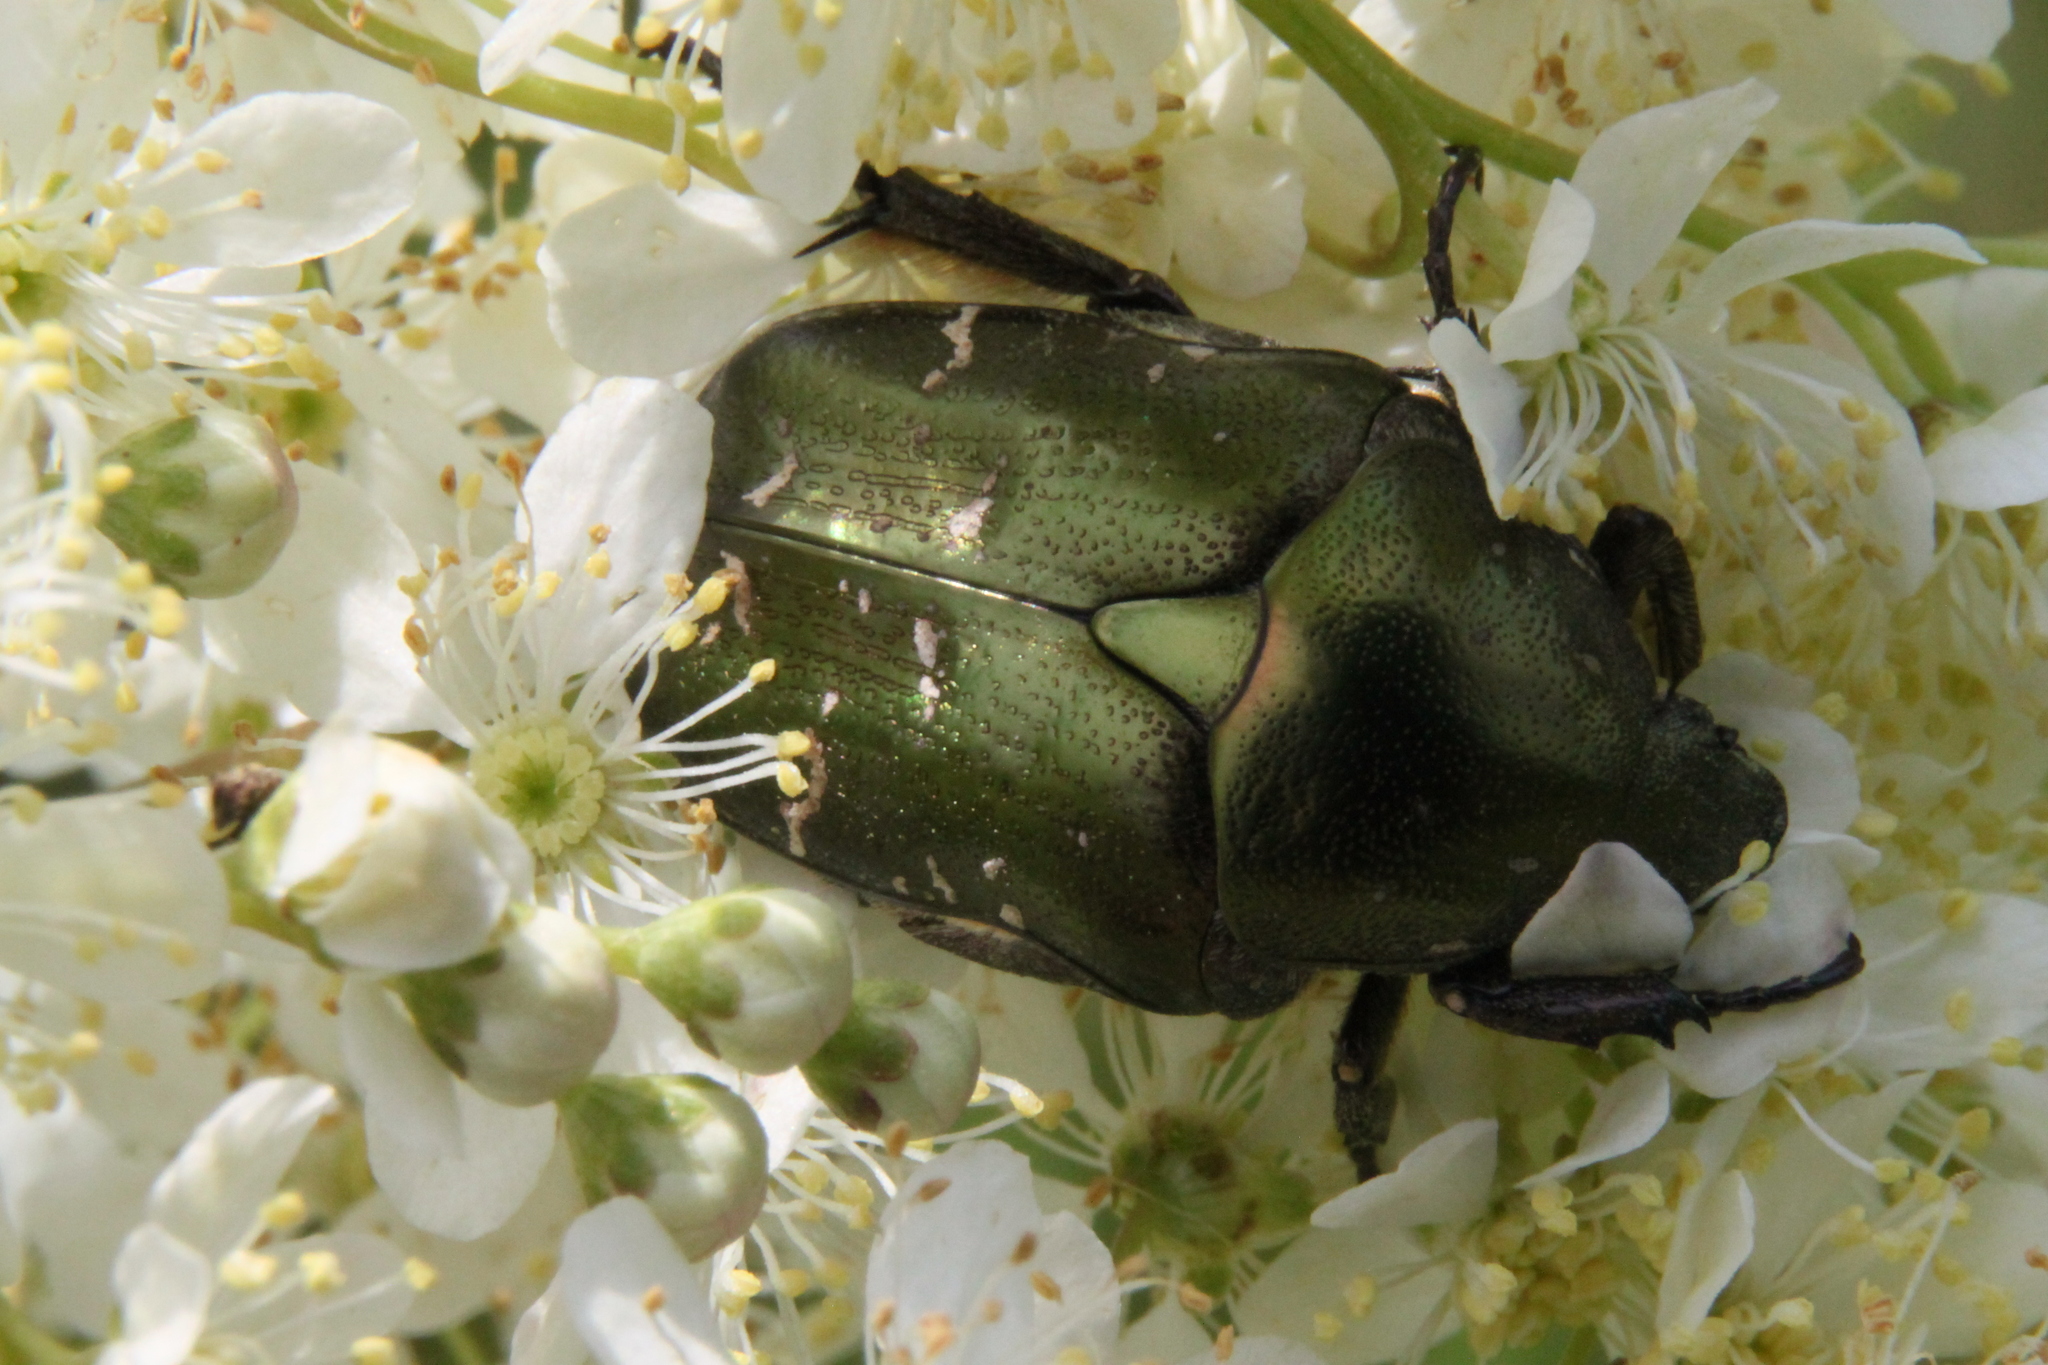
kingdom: Animalia
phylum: Arthropoda
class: Insecta
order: Coleoptera
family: Scarabaeidae
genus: Protaetia
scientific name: Protaetia cuprea
